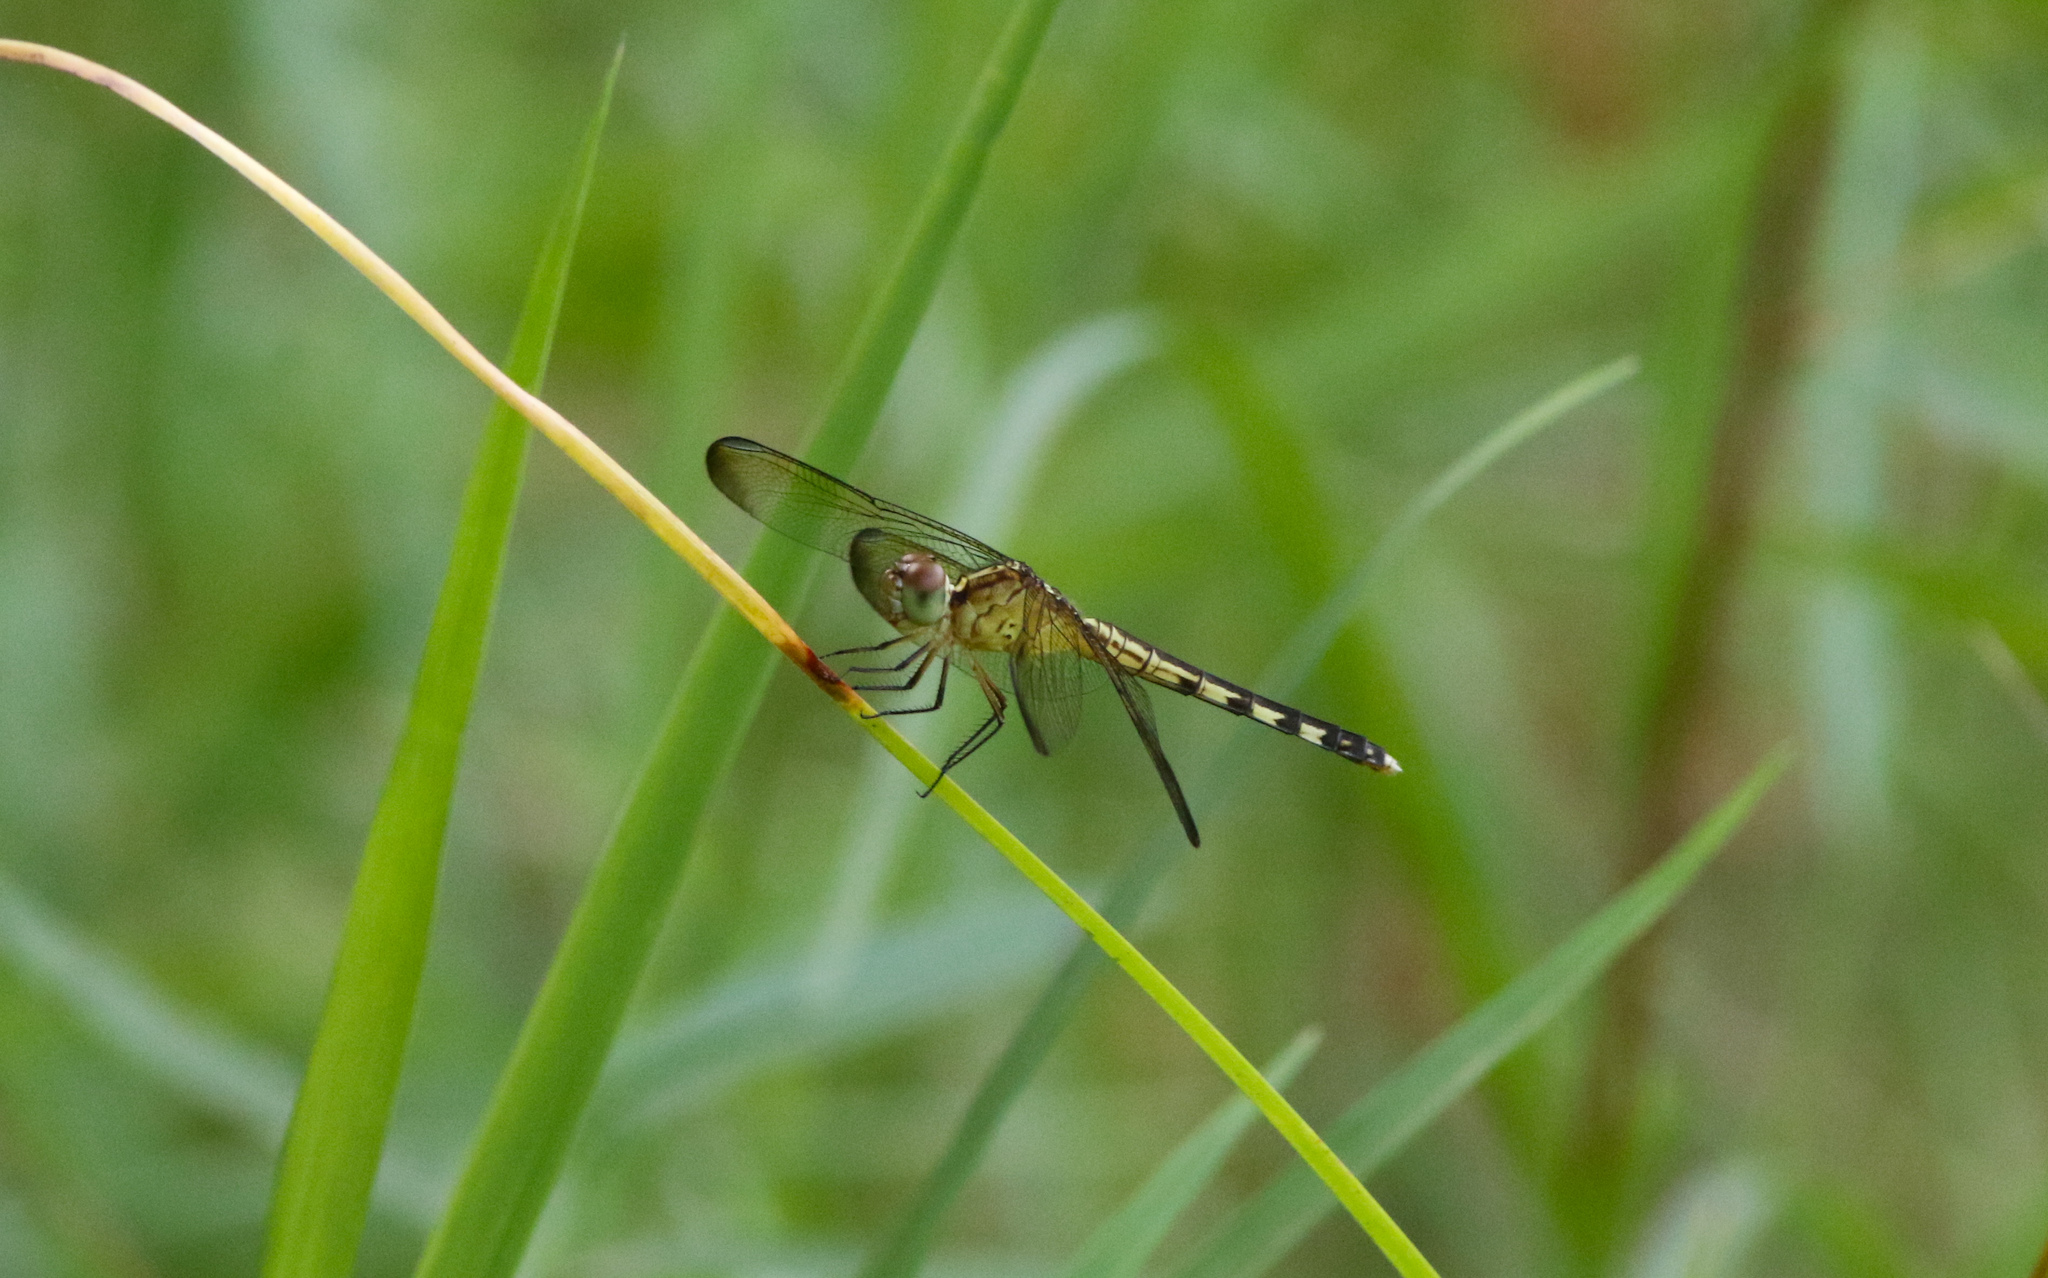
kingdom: Animalia
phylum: Arthropoda
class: Insecta
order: Odonata
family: Libellulidae
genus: Erythrodiplax
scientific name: Erythrodiplax umbrata
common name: Band-winged dragonlet
